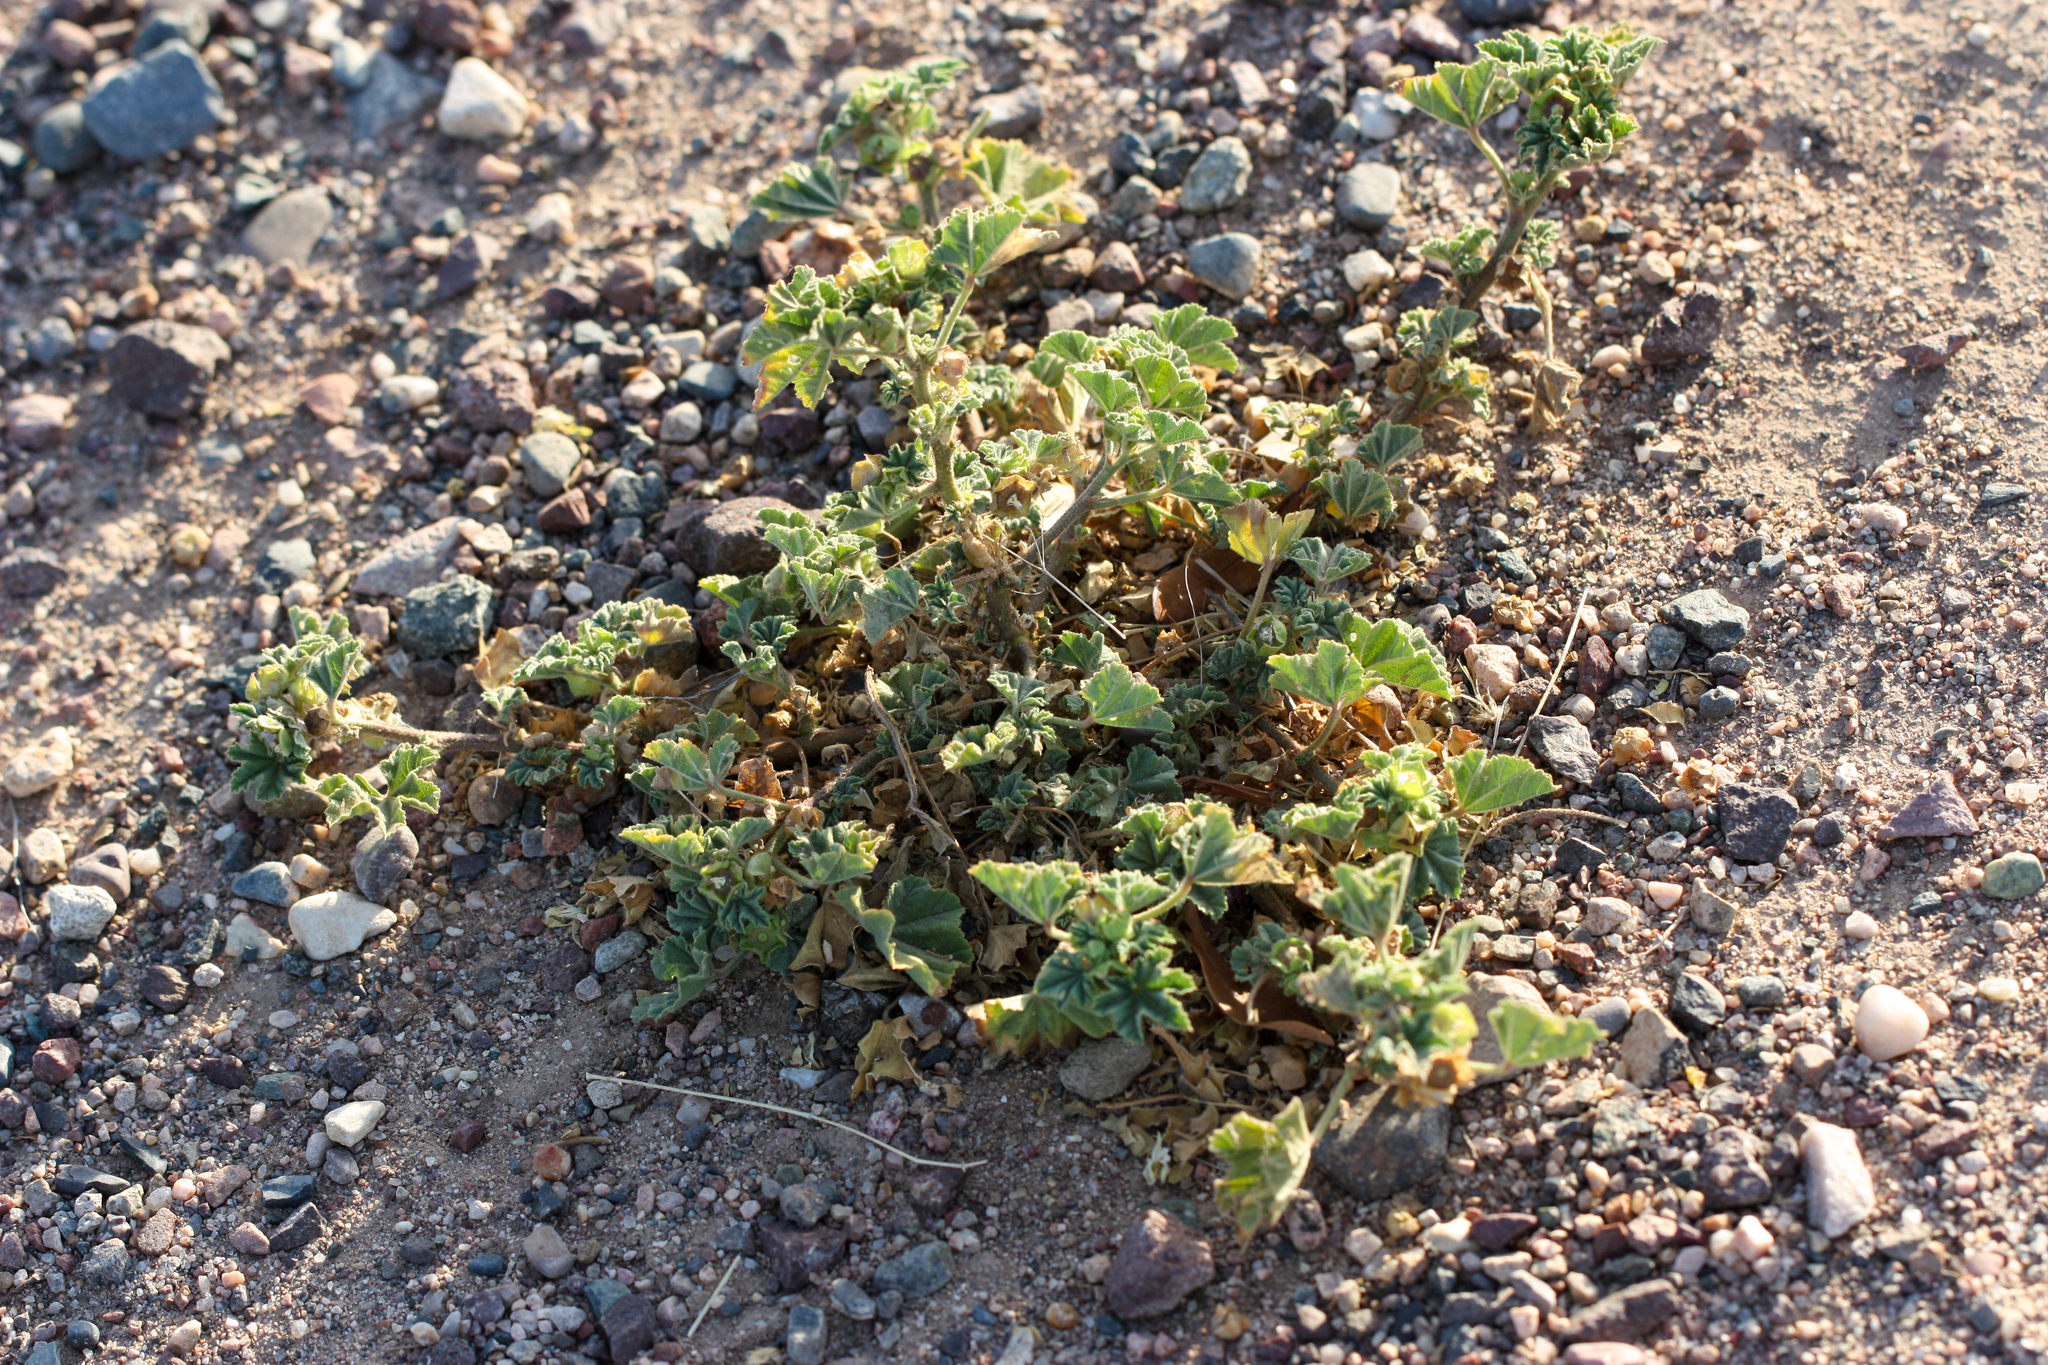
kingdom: Plantae
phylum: Tracheophyta
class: Magnoliopsida
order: Malvales
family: Malvaceae
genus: Malva
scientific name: Malva parviflora
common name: Least mallow
